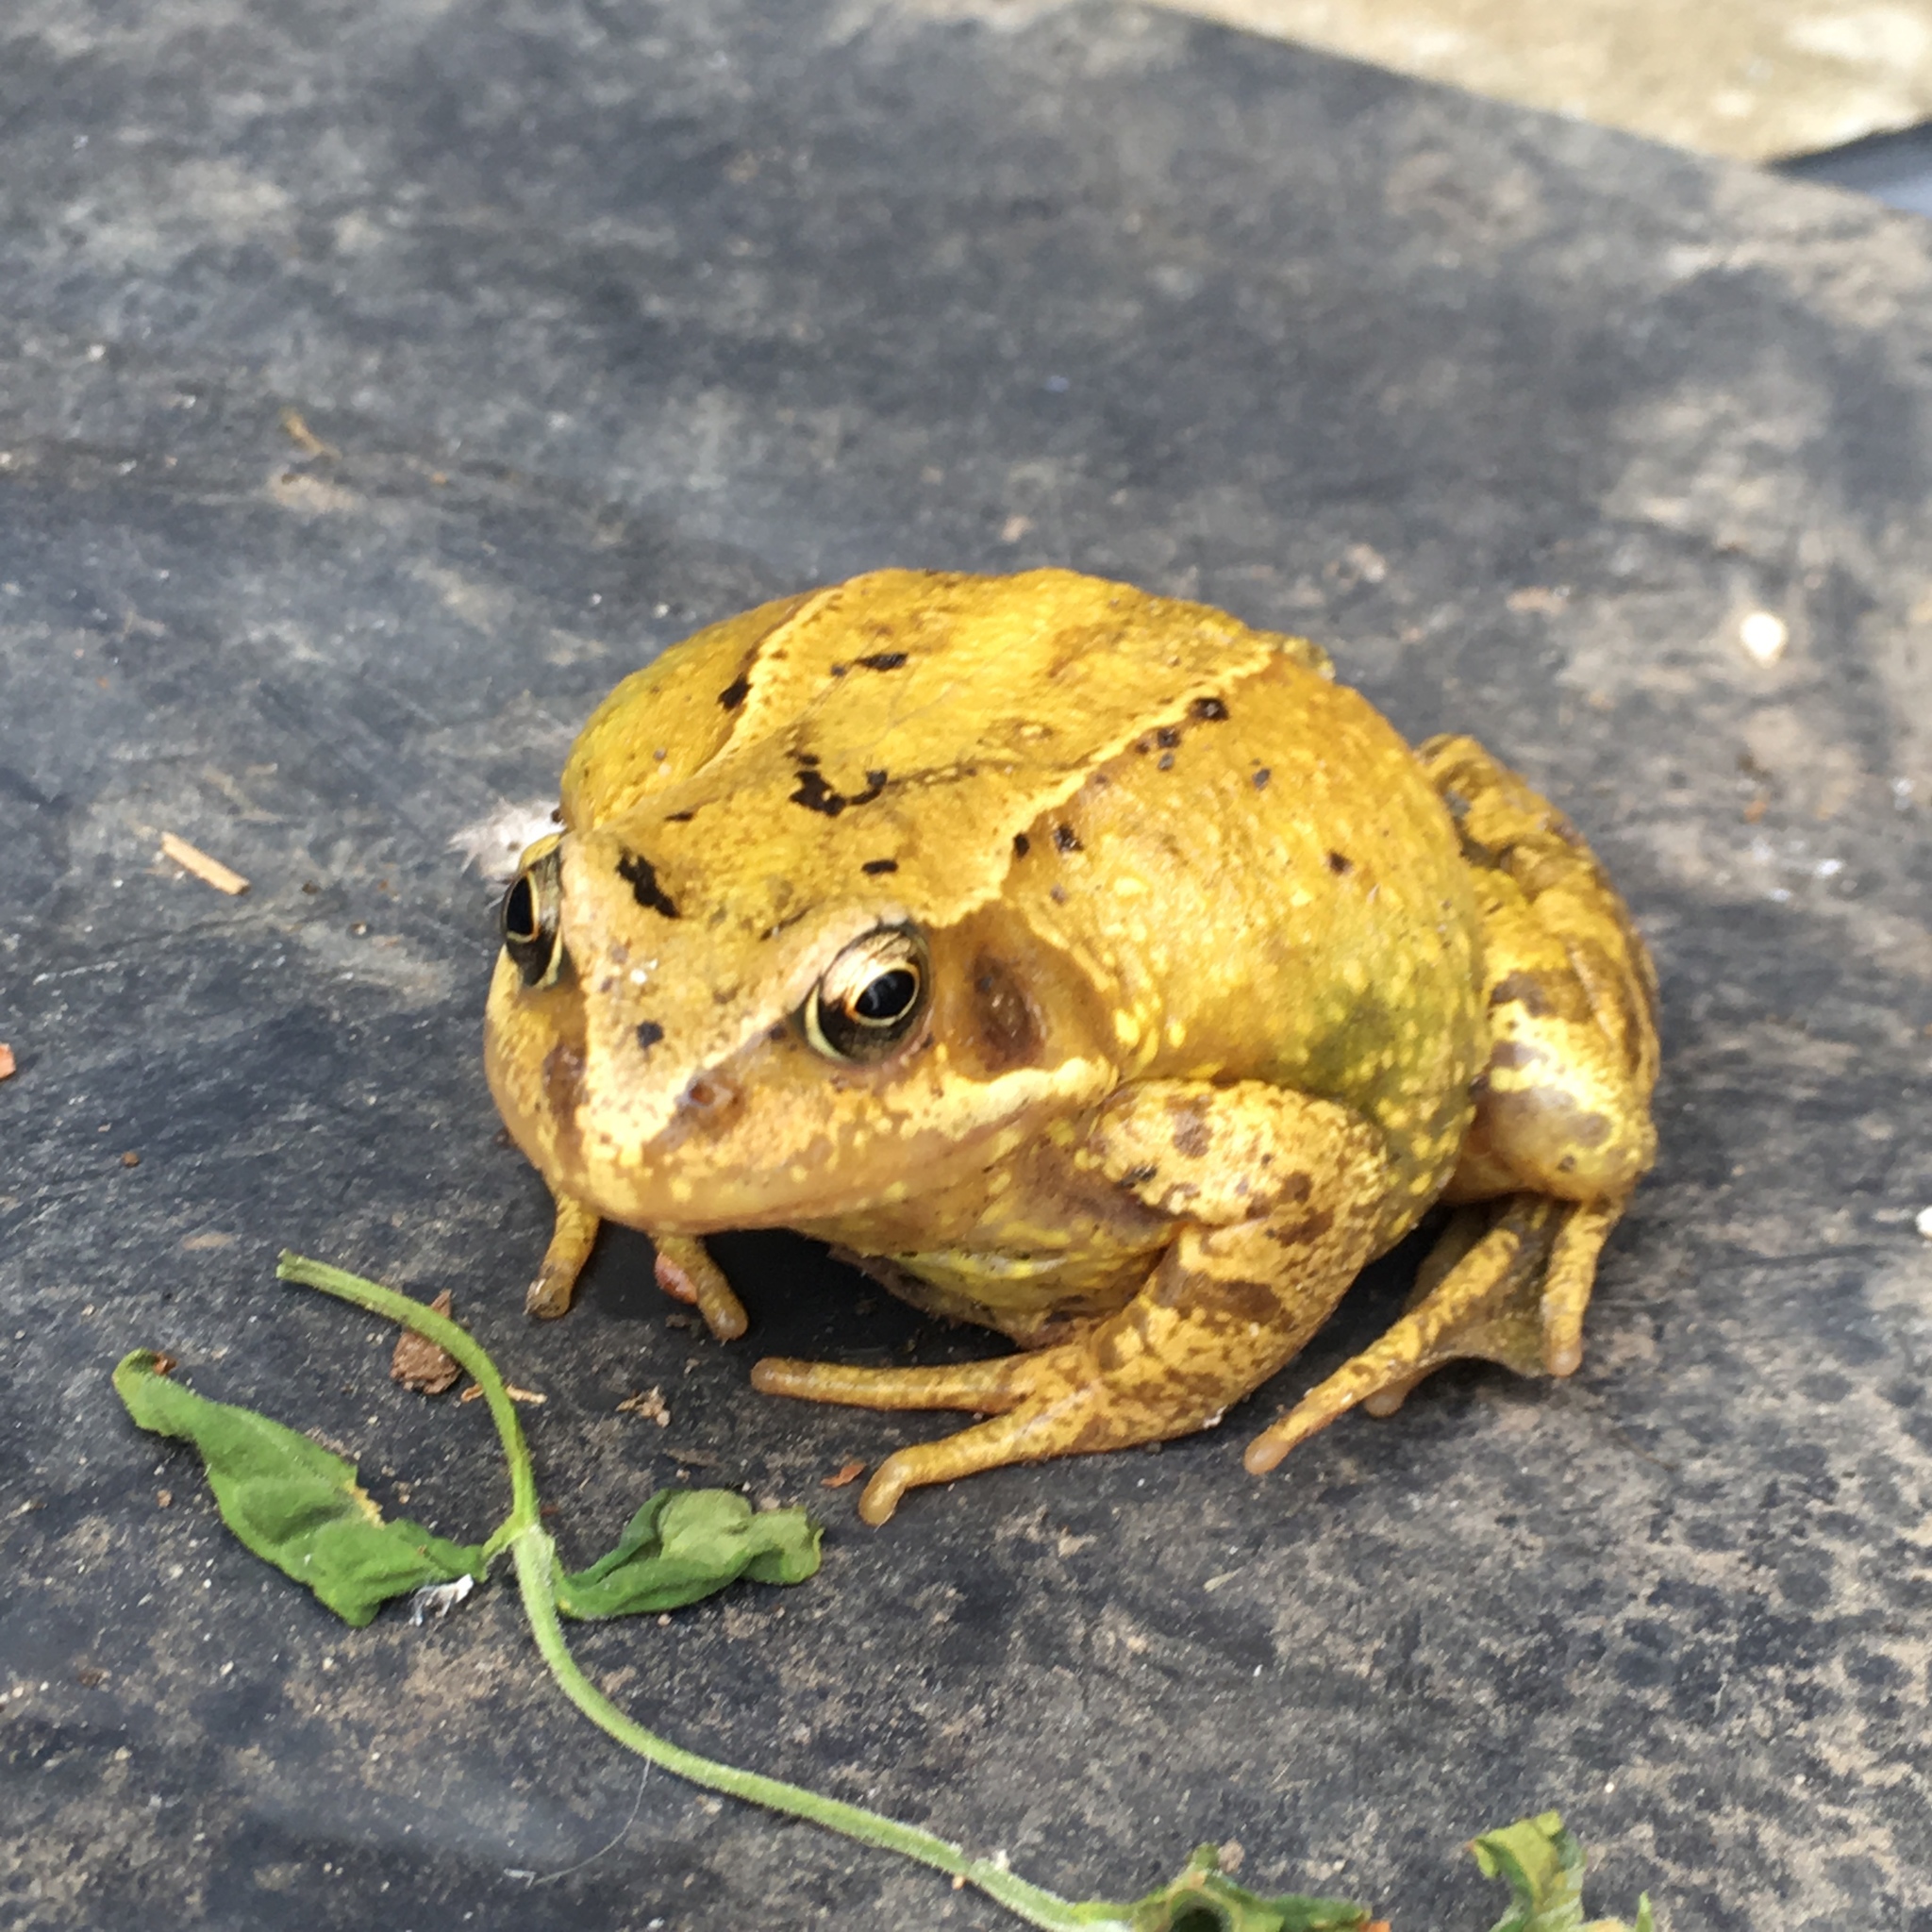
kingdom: Animalia
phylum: Chordata
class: Amphibia
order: Anura
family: Ranidae
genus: Rana
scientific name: Rana temporaria
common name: Common frog
